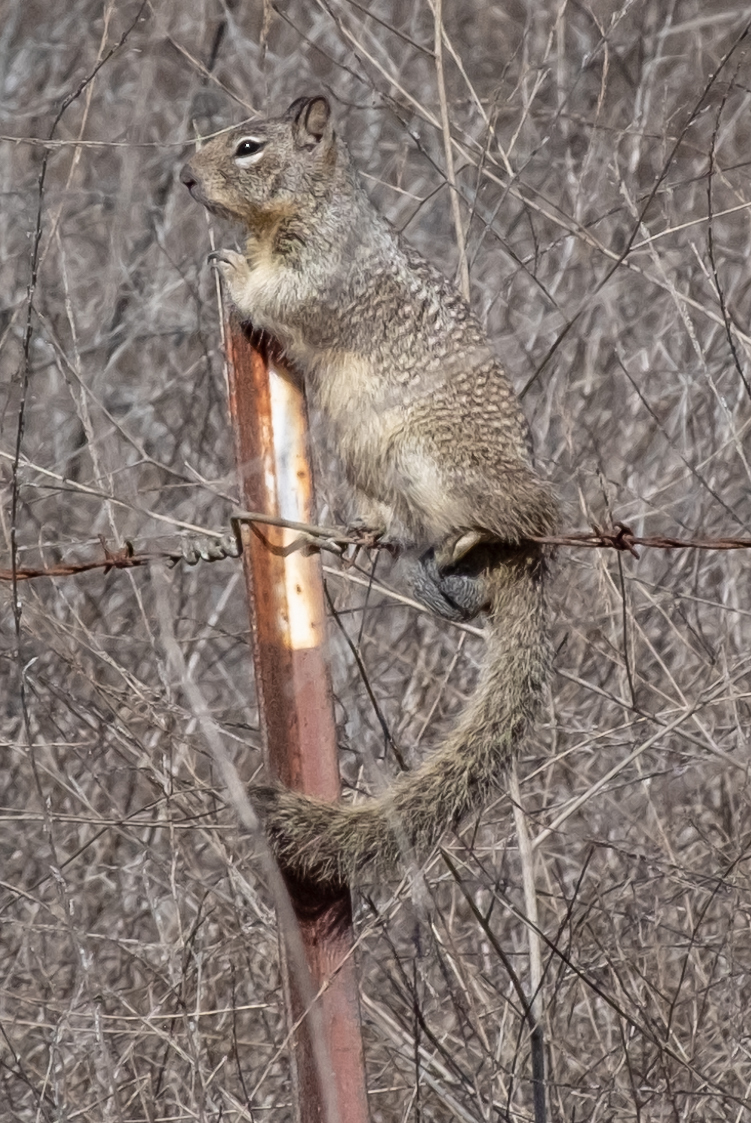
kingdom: Animalia
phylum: Chordata
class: Mammalia
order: Rodentia
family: Sciuridae
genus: Otospermophilus
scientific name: Otospermophilus beecheyi
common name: California ground squirrel
